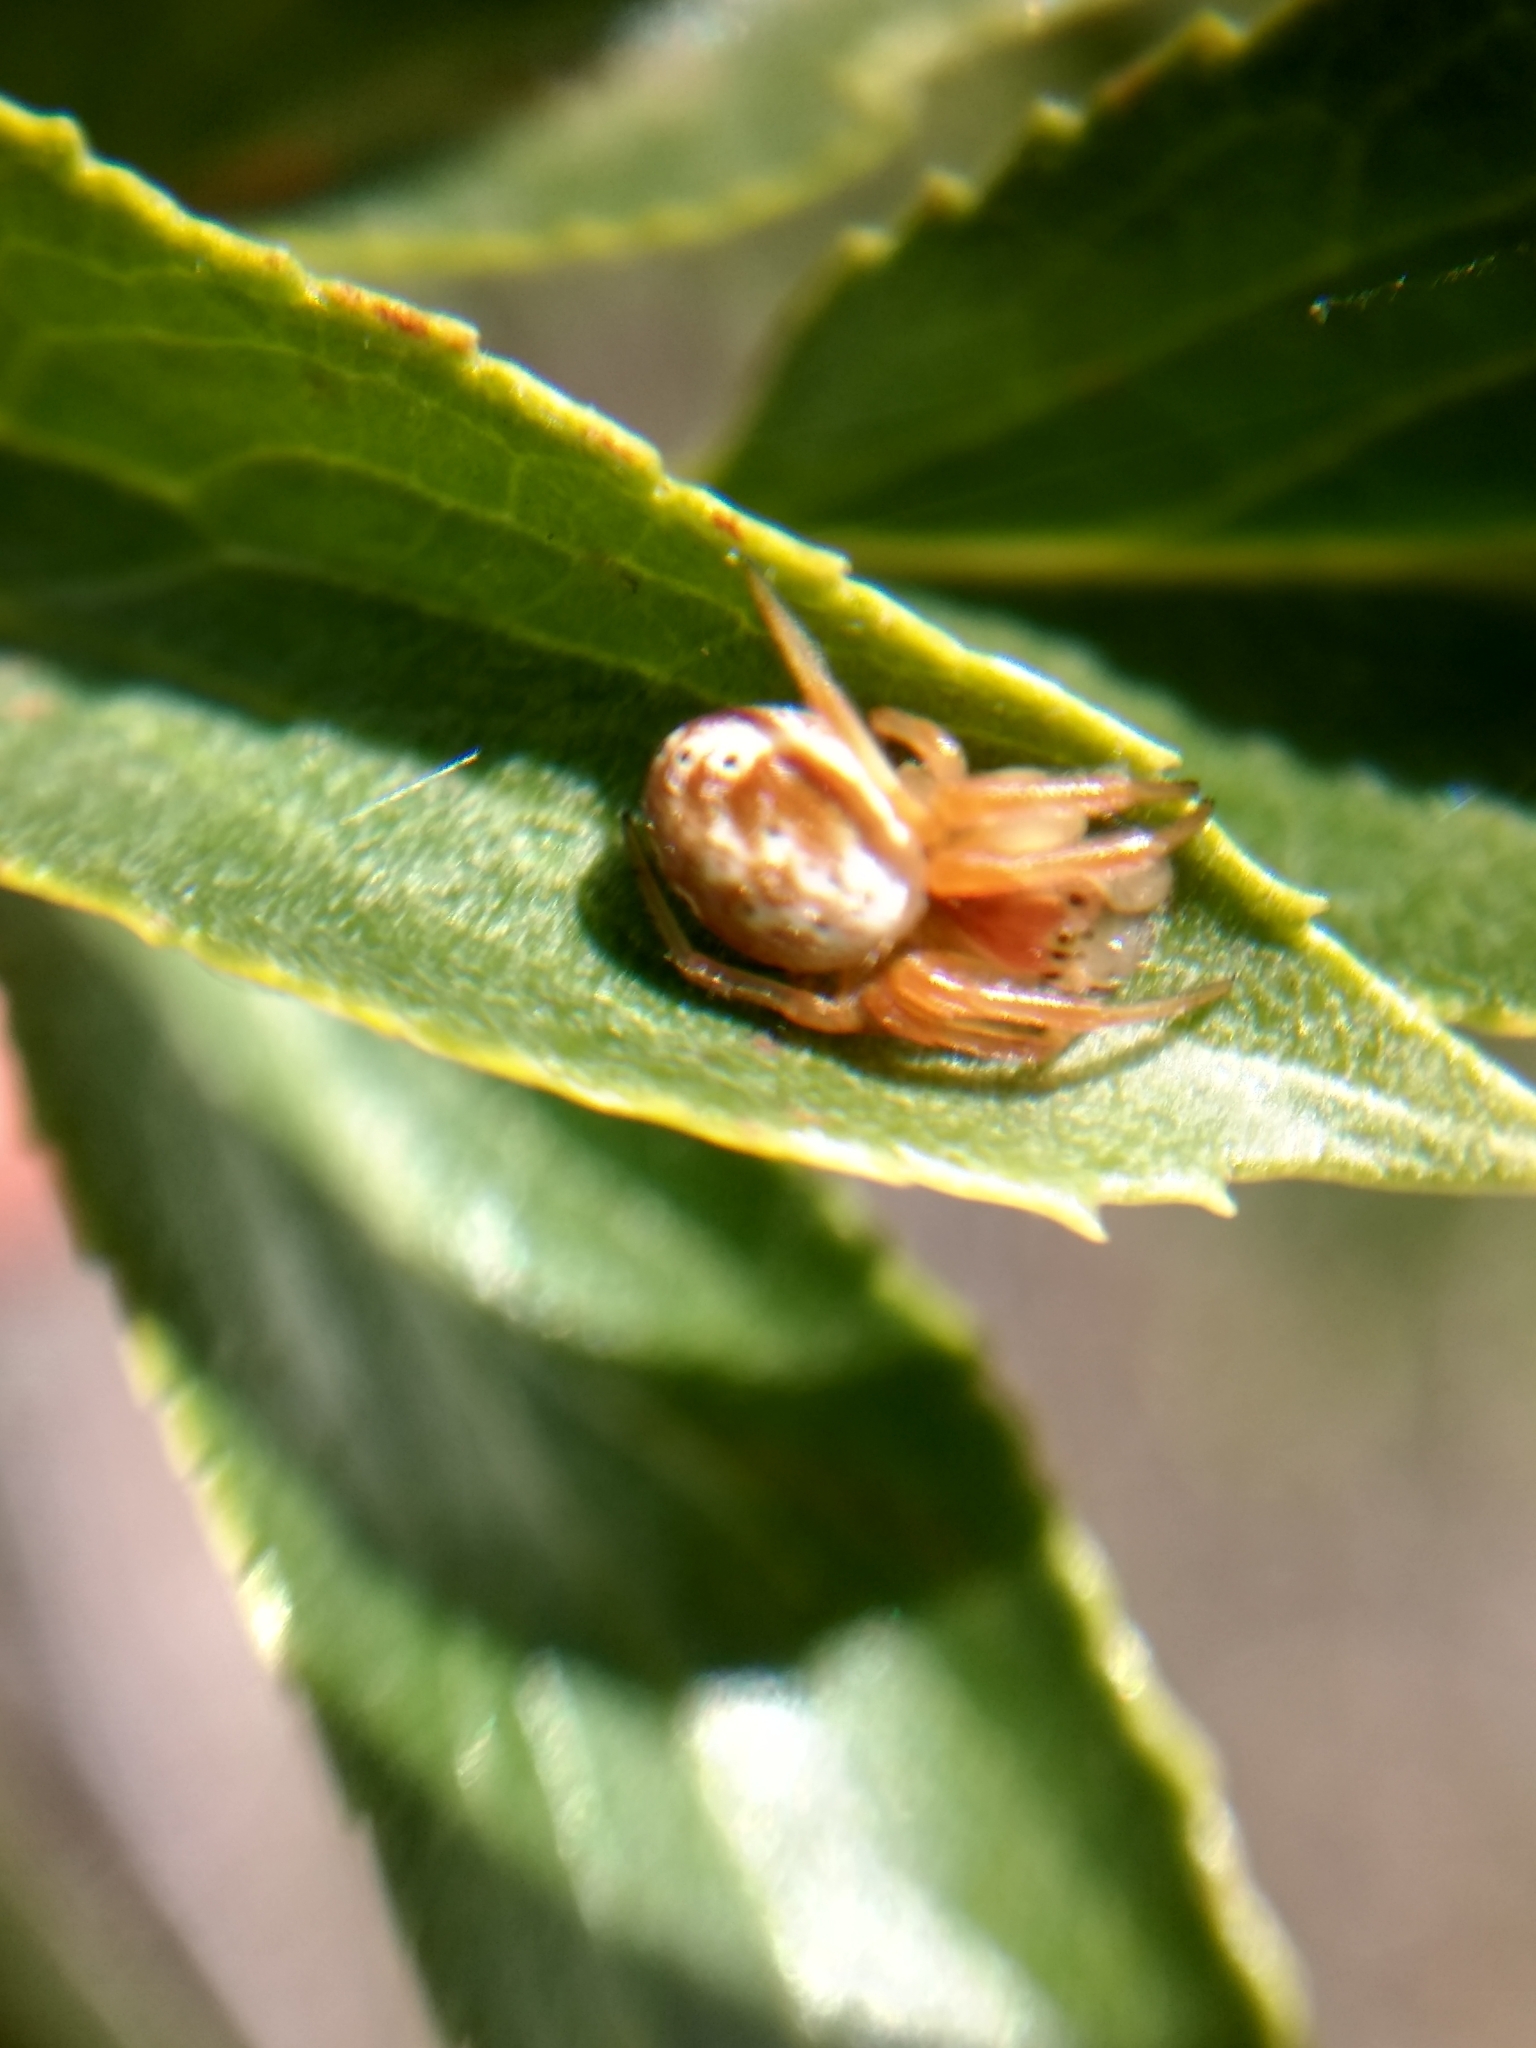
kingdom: Animalia
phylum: Arthropoda
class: Arachnida
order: Araneae
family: Araneidae
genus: Araniella
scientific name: Araniella displicata
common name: Sixspotted orb weaver
